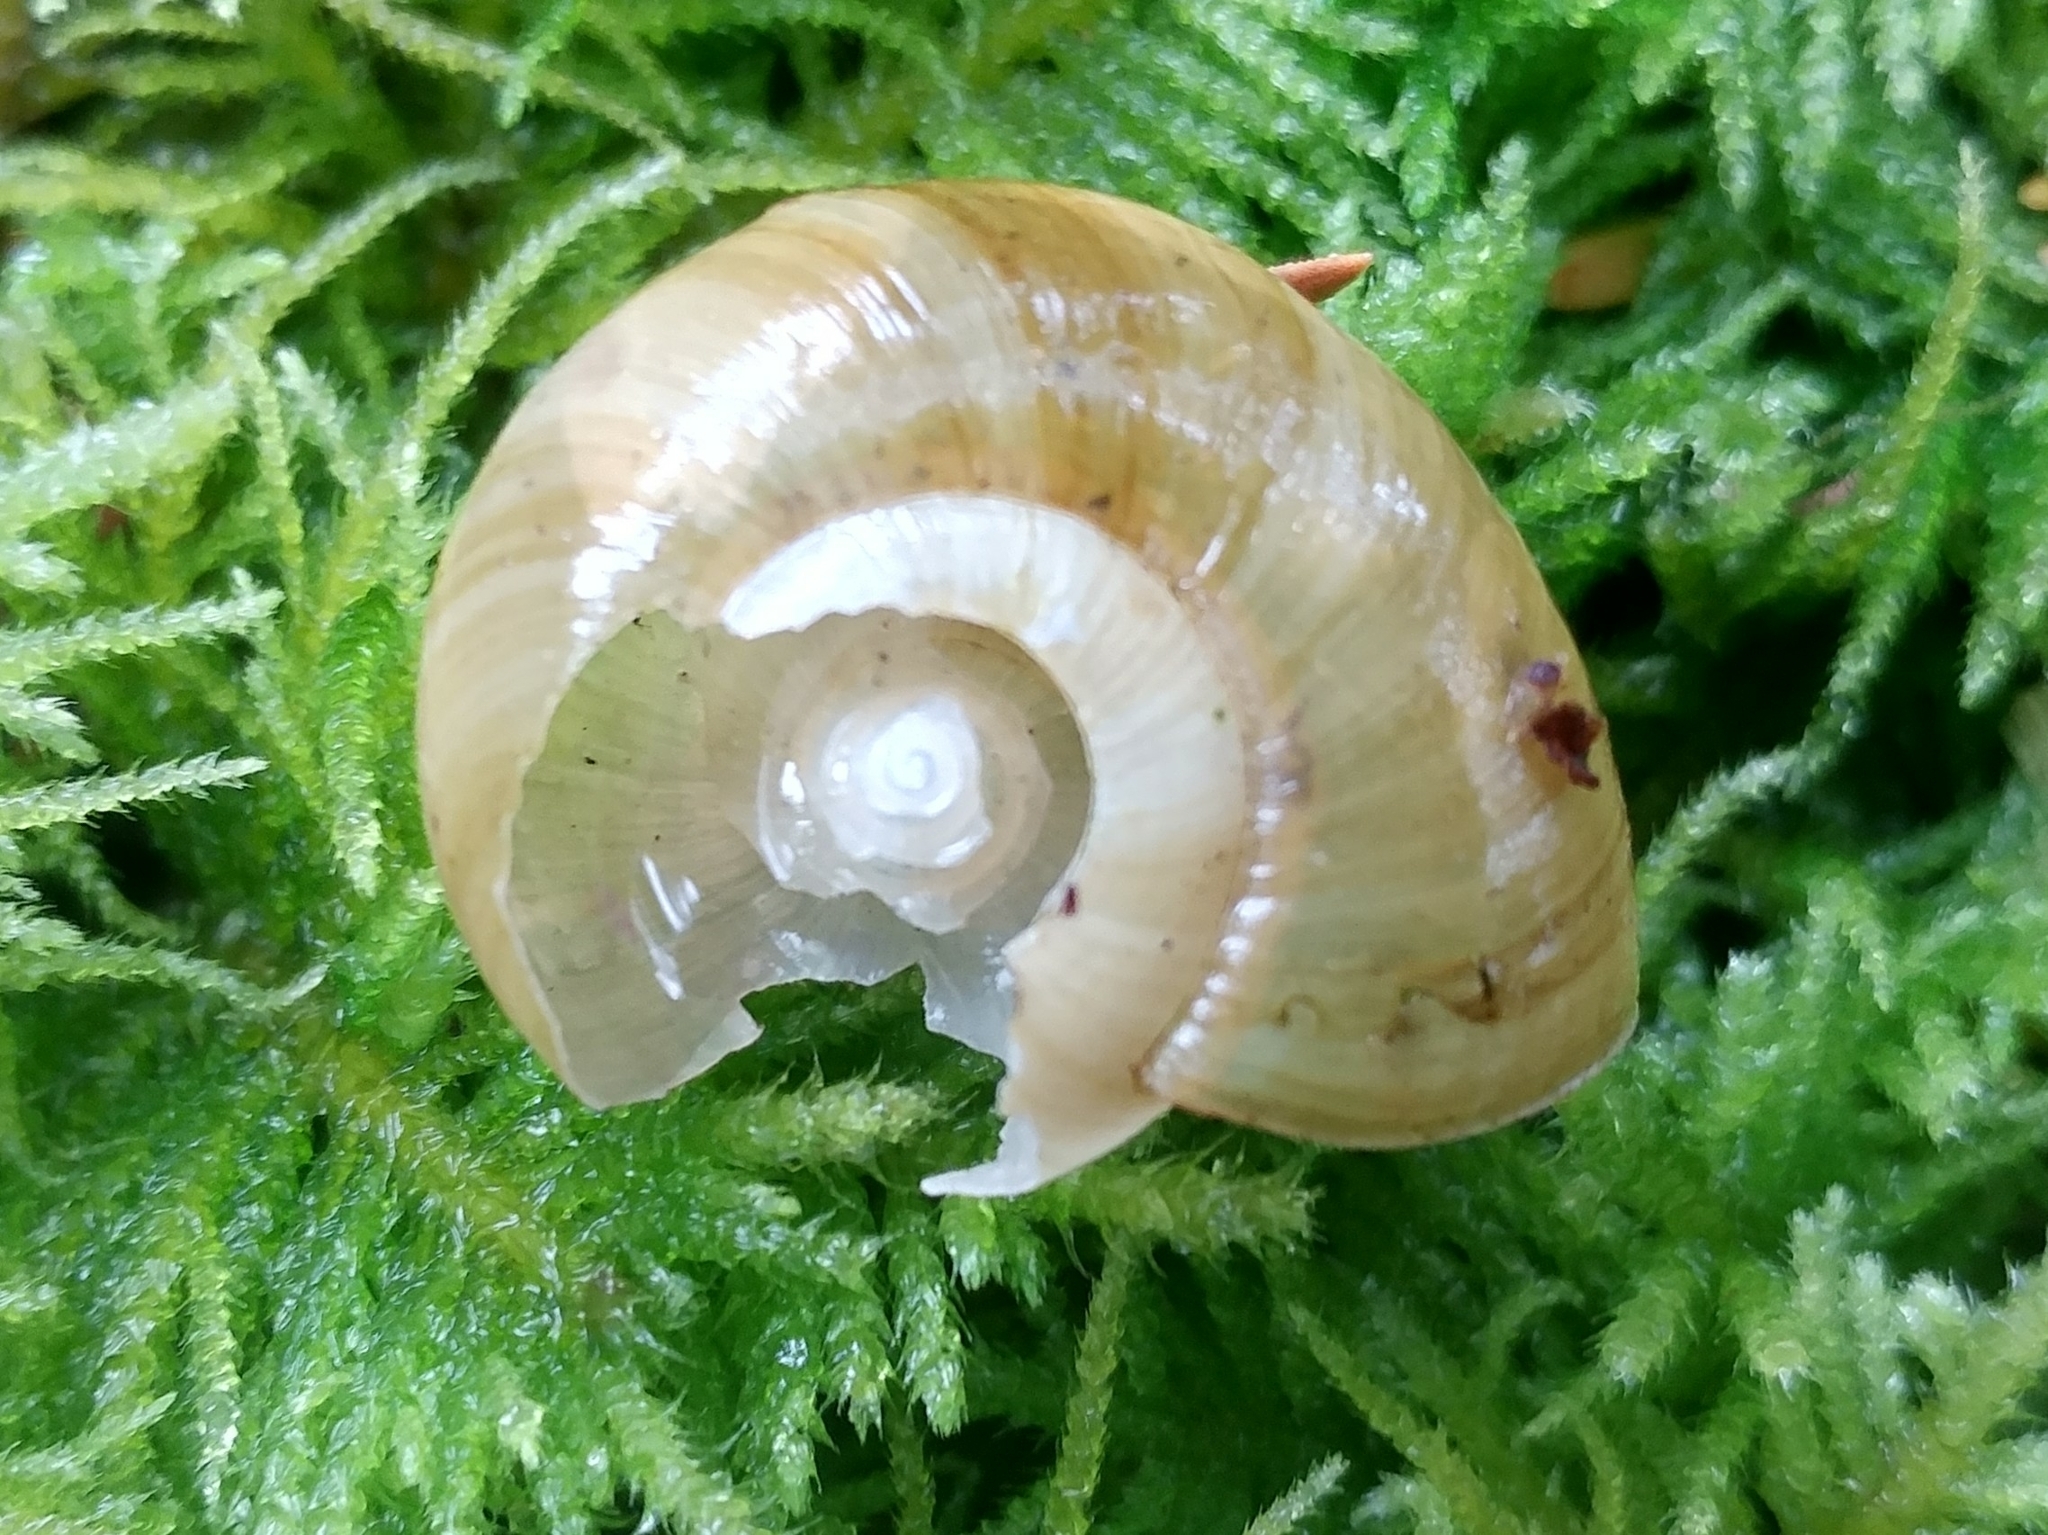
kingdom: Animalia
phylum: Mollusca
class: Gastropoda
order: Stylommatophora
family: Haplotrematidae
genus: Haplotrema
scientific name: Haplotrema vancouverense
